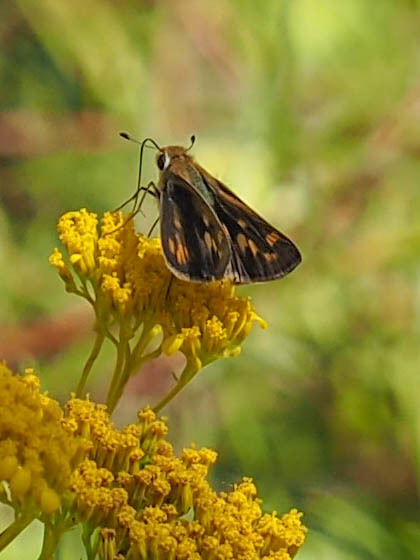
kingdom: Animalia
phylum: Arthropoda
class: Insecta
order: Lepidoptera
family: Hesperiidae
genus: Hylephila
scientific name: Hylephila phyleus
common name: Fiery skipper
